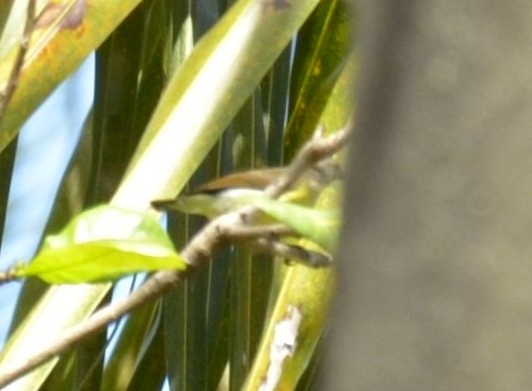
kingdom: Animalia
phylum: Chordata
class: Aves
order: Passeriformes
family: Nectariniidae
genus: Leptocoma
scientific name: Leptocoma zeylonica
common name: Purple-rumped sunbird
